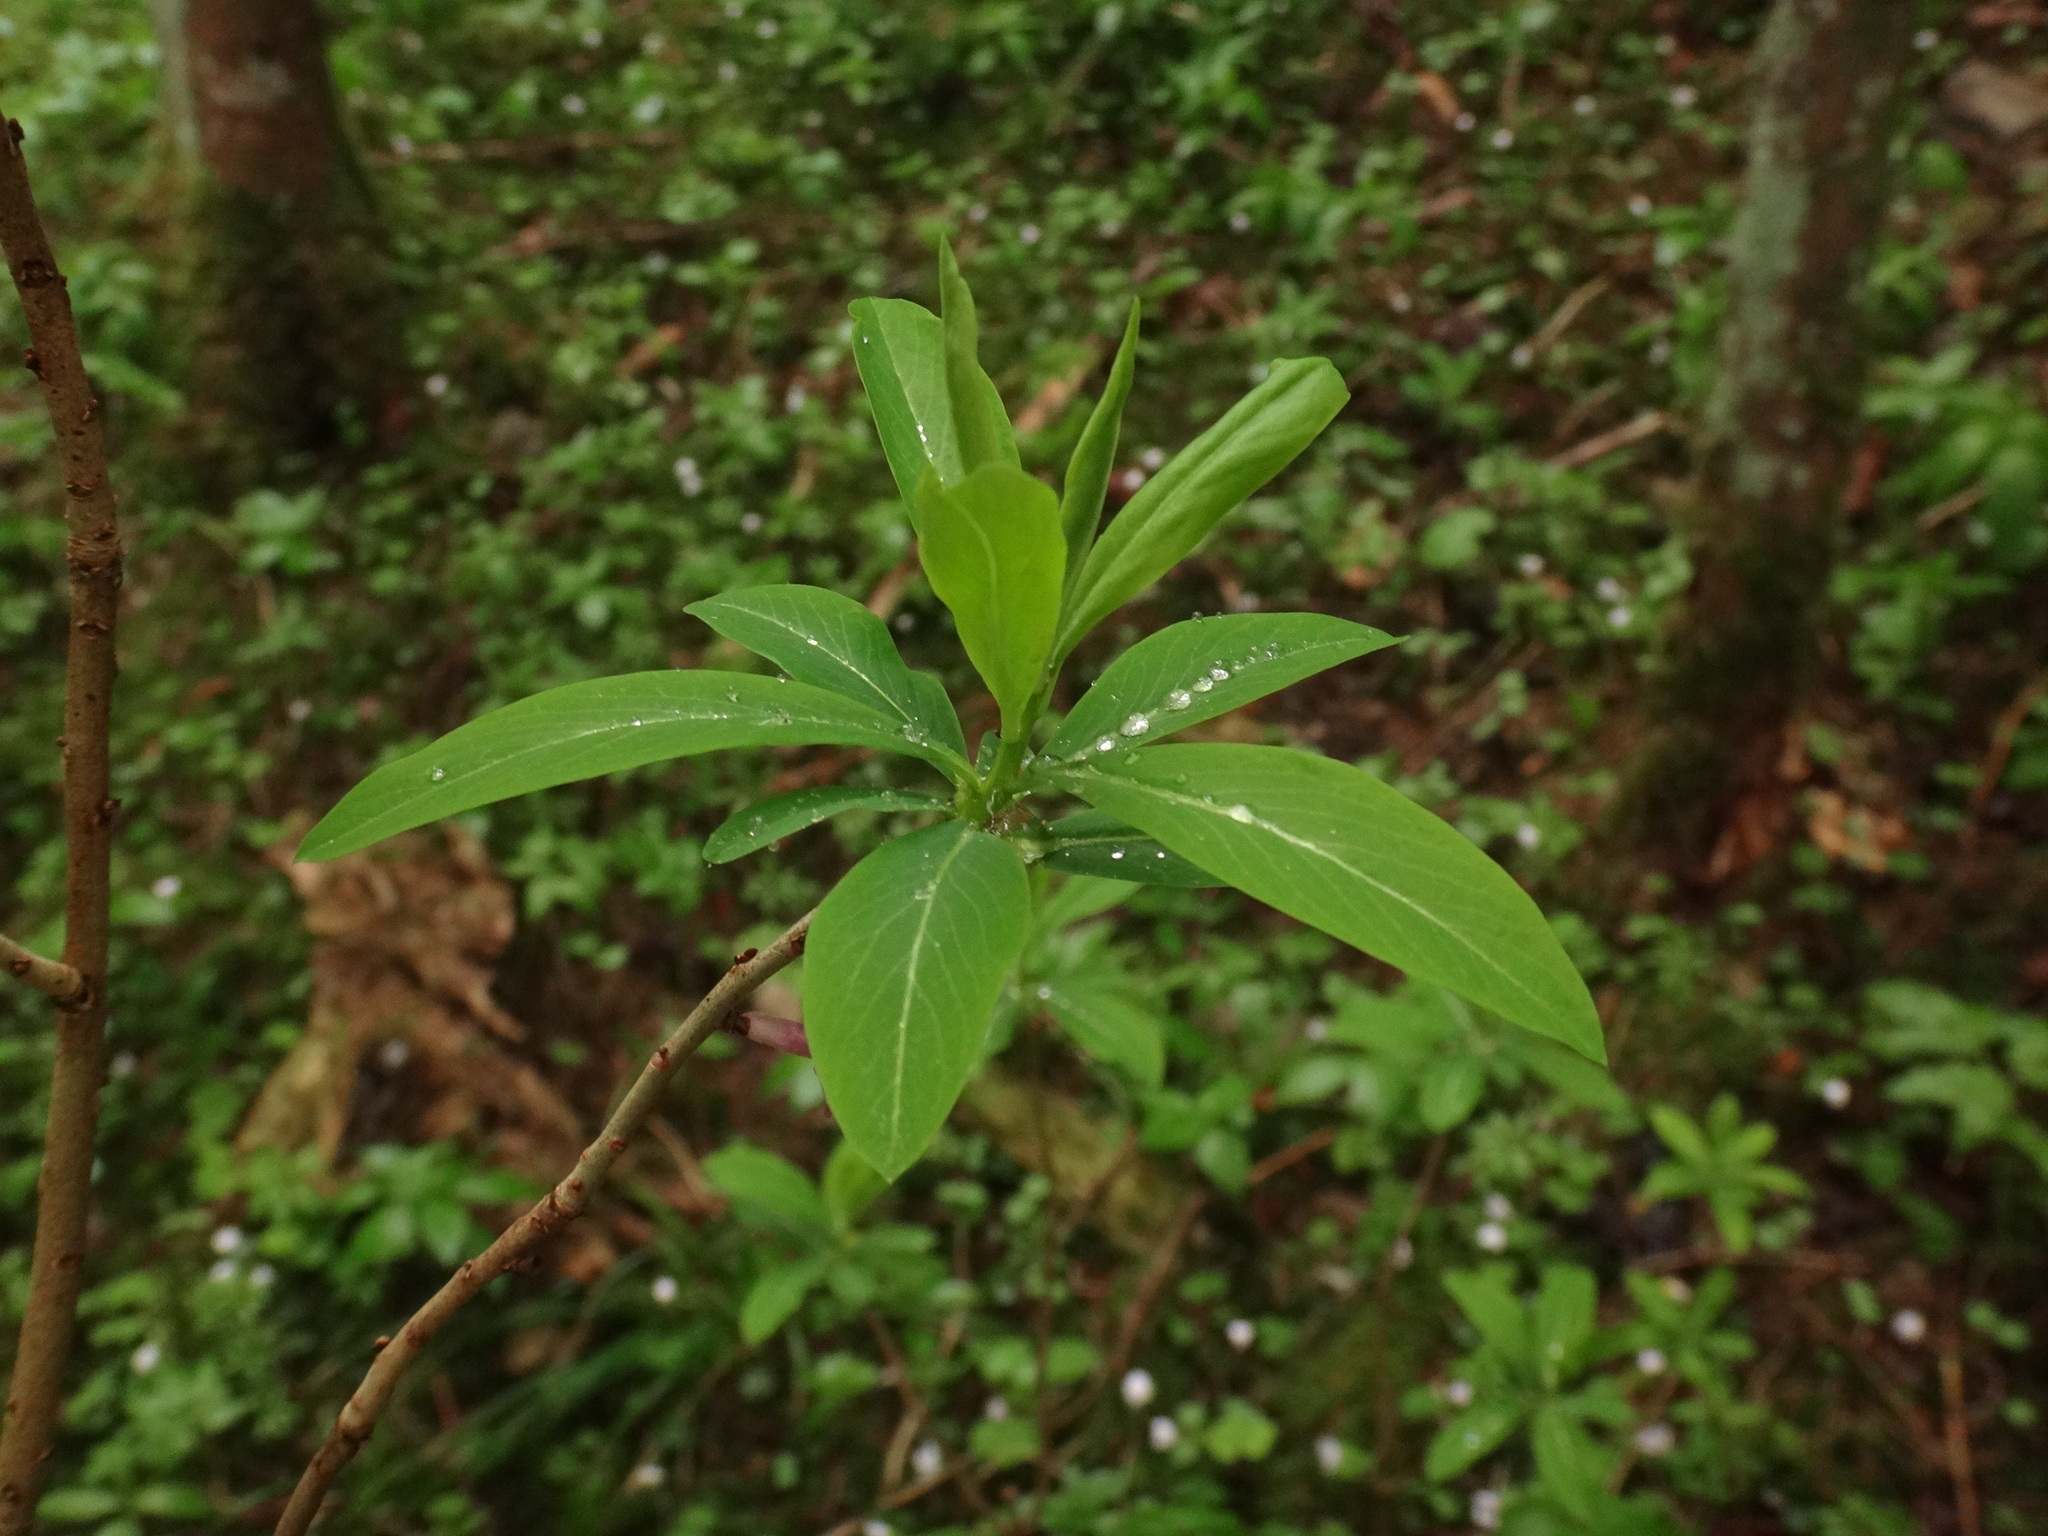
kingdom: Plantae
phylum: Tracheophyta
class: Magnoliopsida
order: Malvales
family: Thymelaeaceae
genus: Daphne
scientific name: Daphne mezereum
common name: Mezereon
